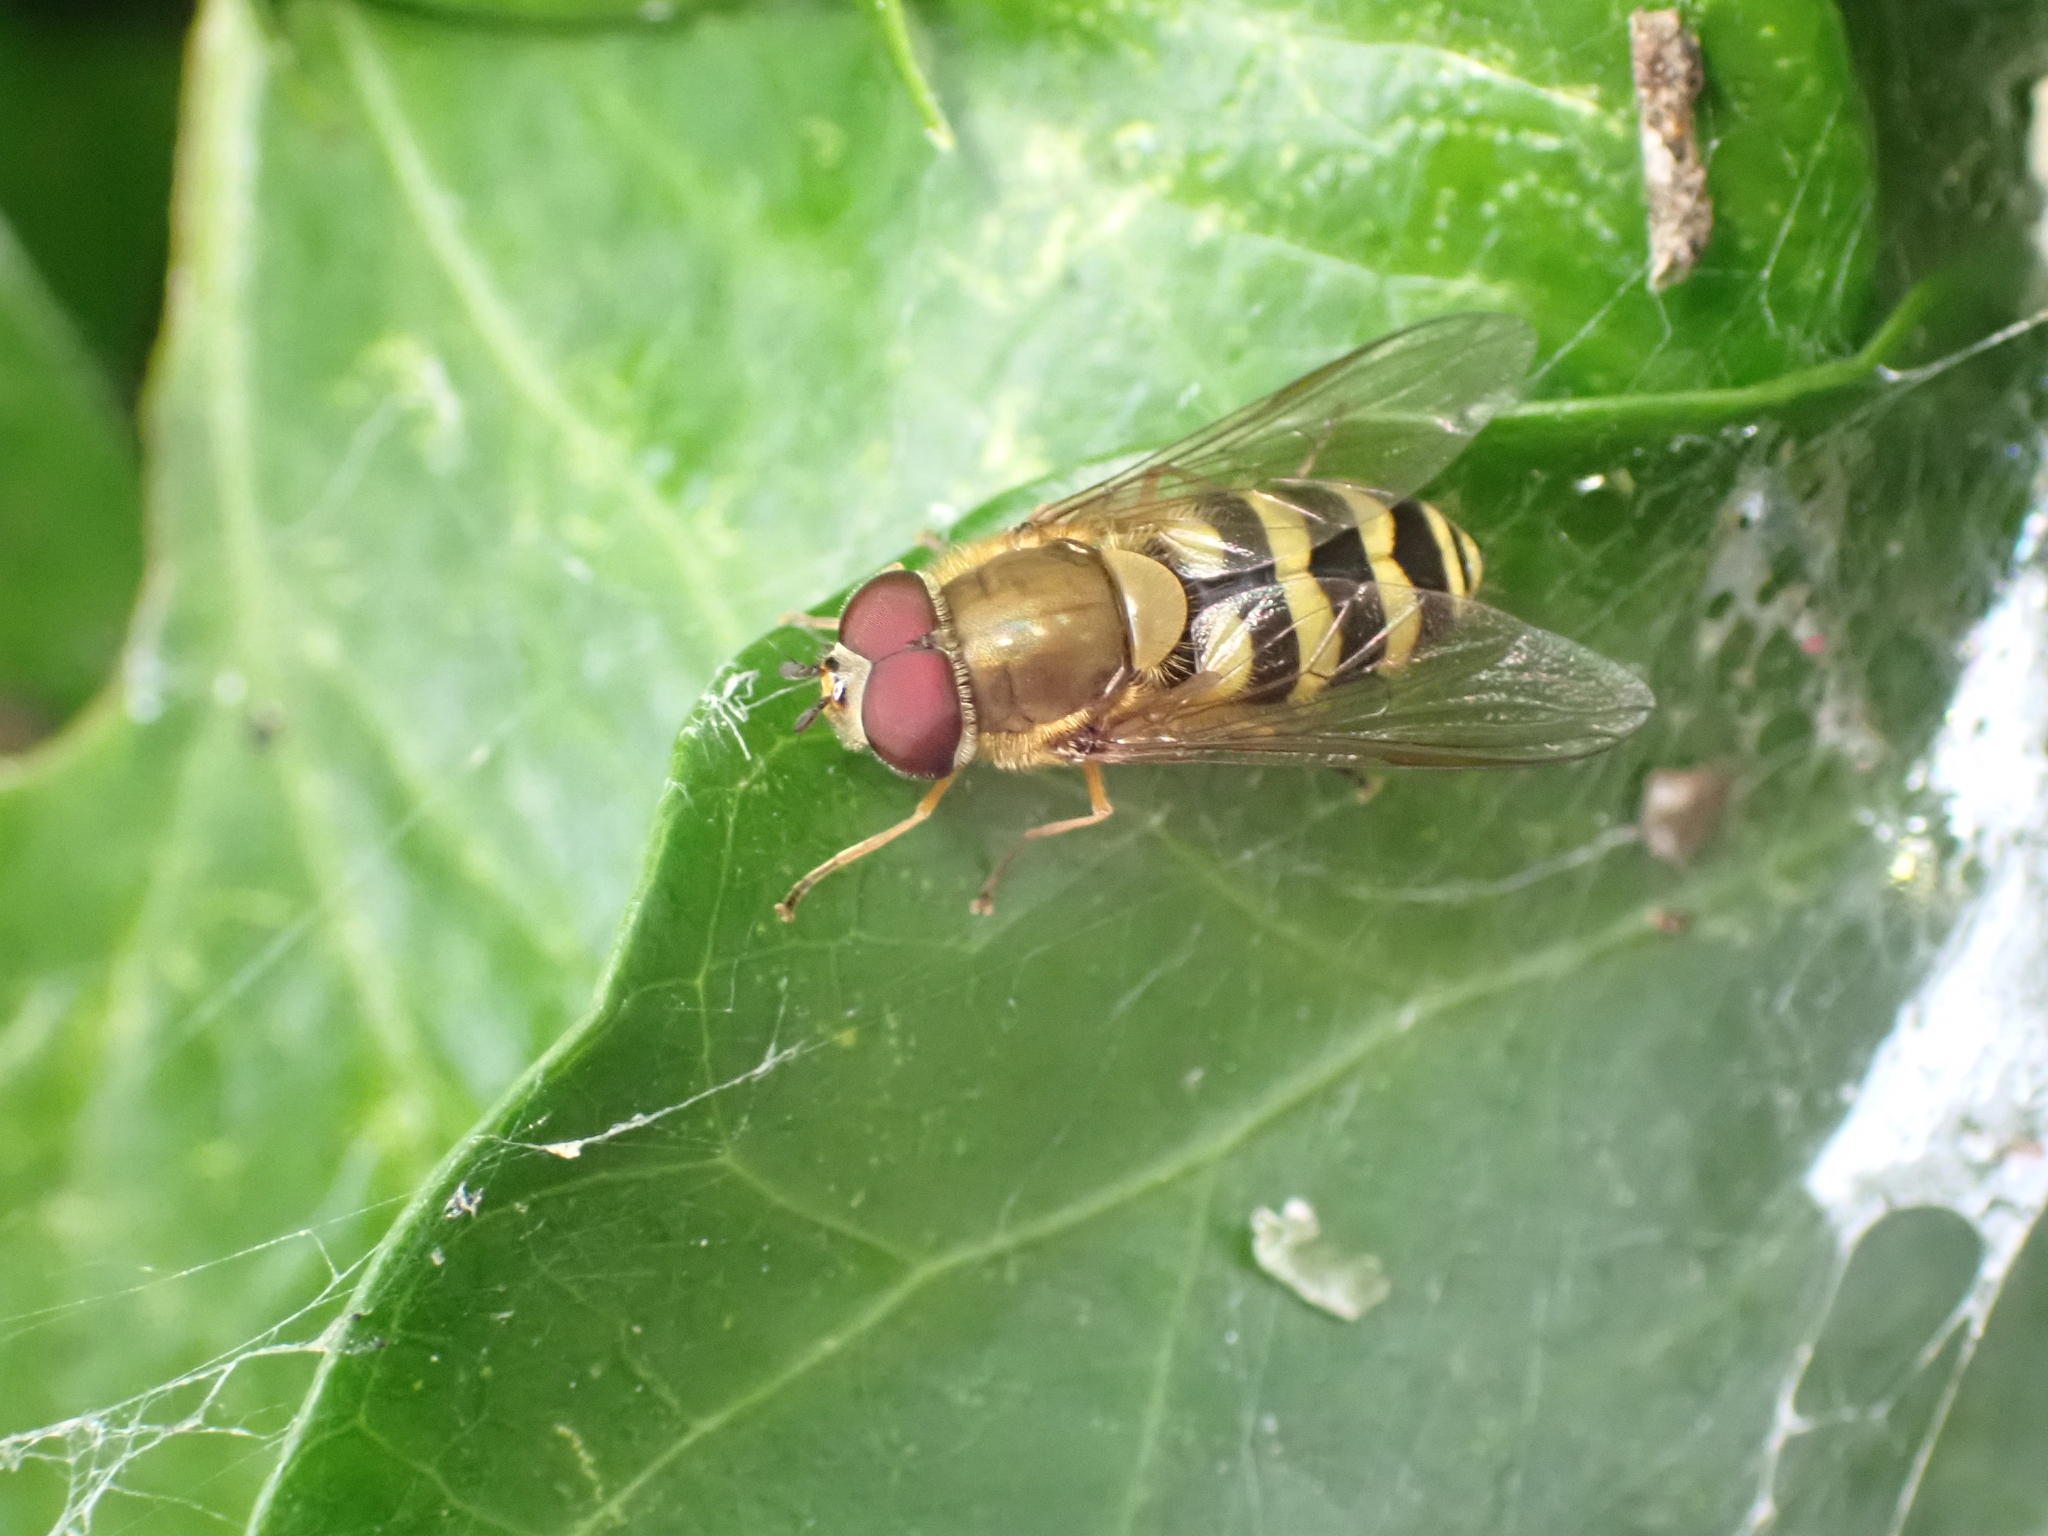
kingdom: Animalia
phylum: Arthropoda
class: Insecta
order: Diptera
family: Syrphidae
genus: Syrphus
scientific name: Syrphus
